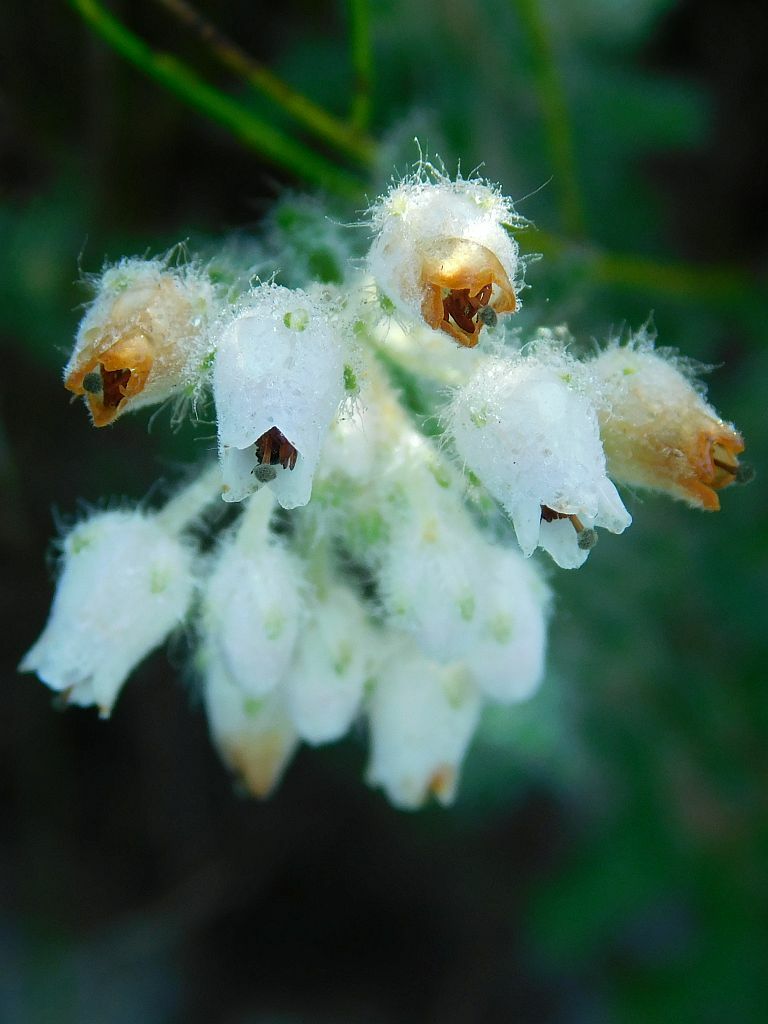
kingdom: Plantae
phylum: Tracheophyta
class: Magnoliopsida
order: Ericales
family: Ericaceae
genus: Erica
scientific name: Erica pannosa
